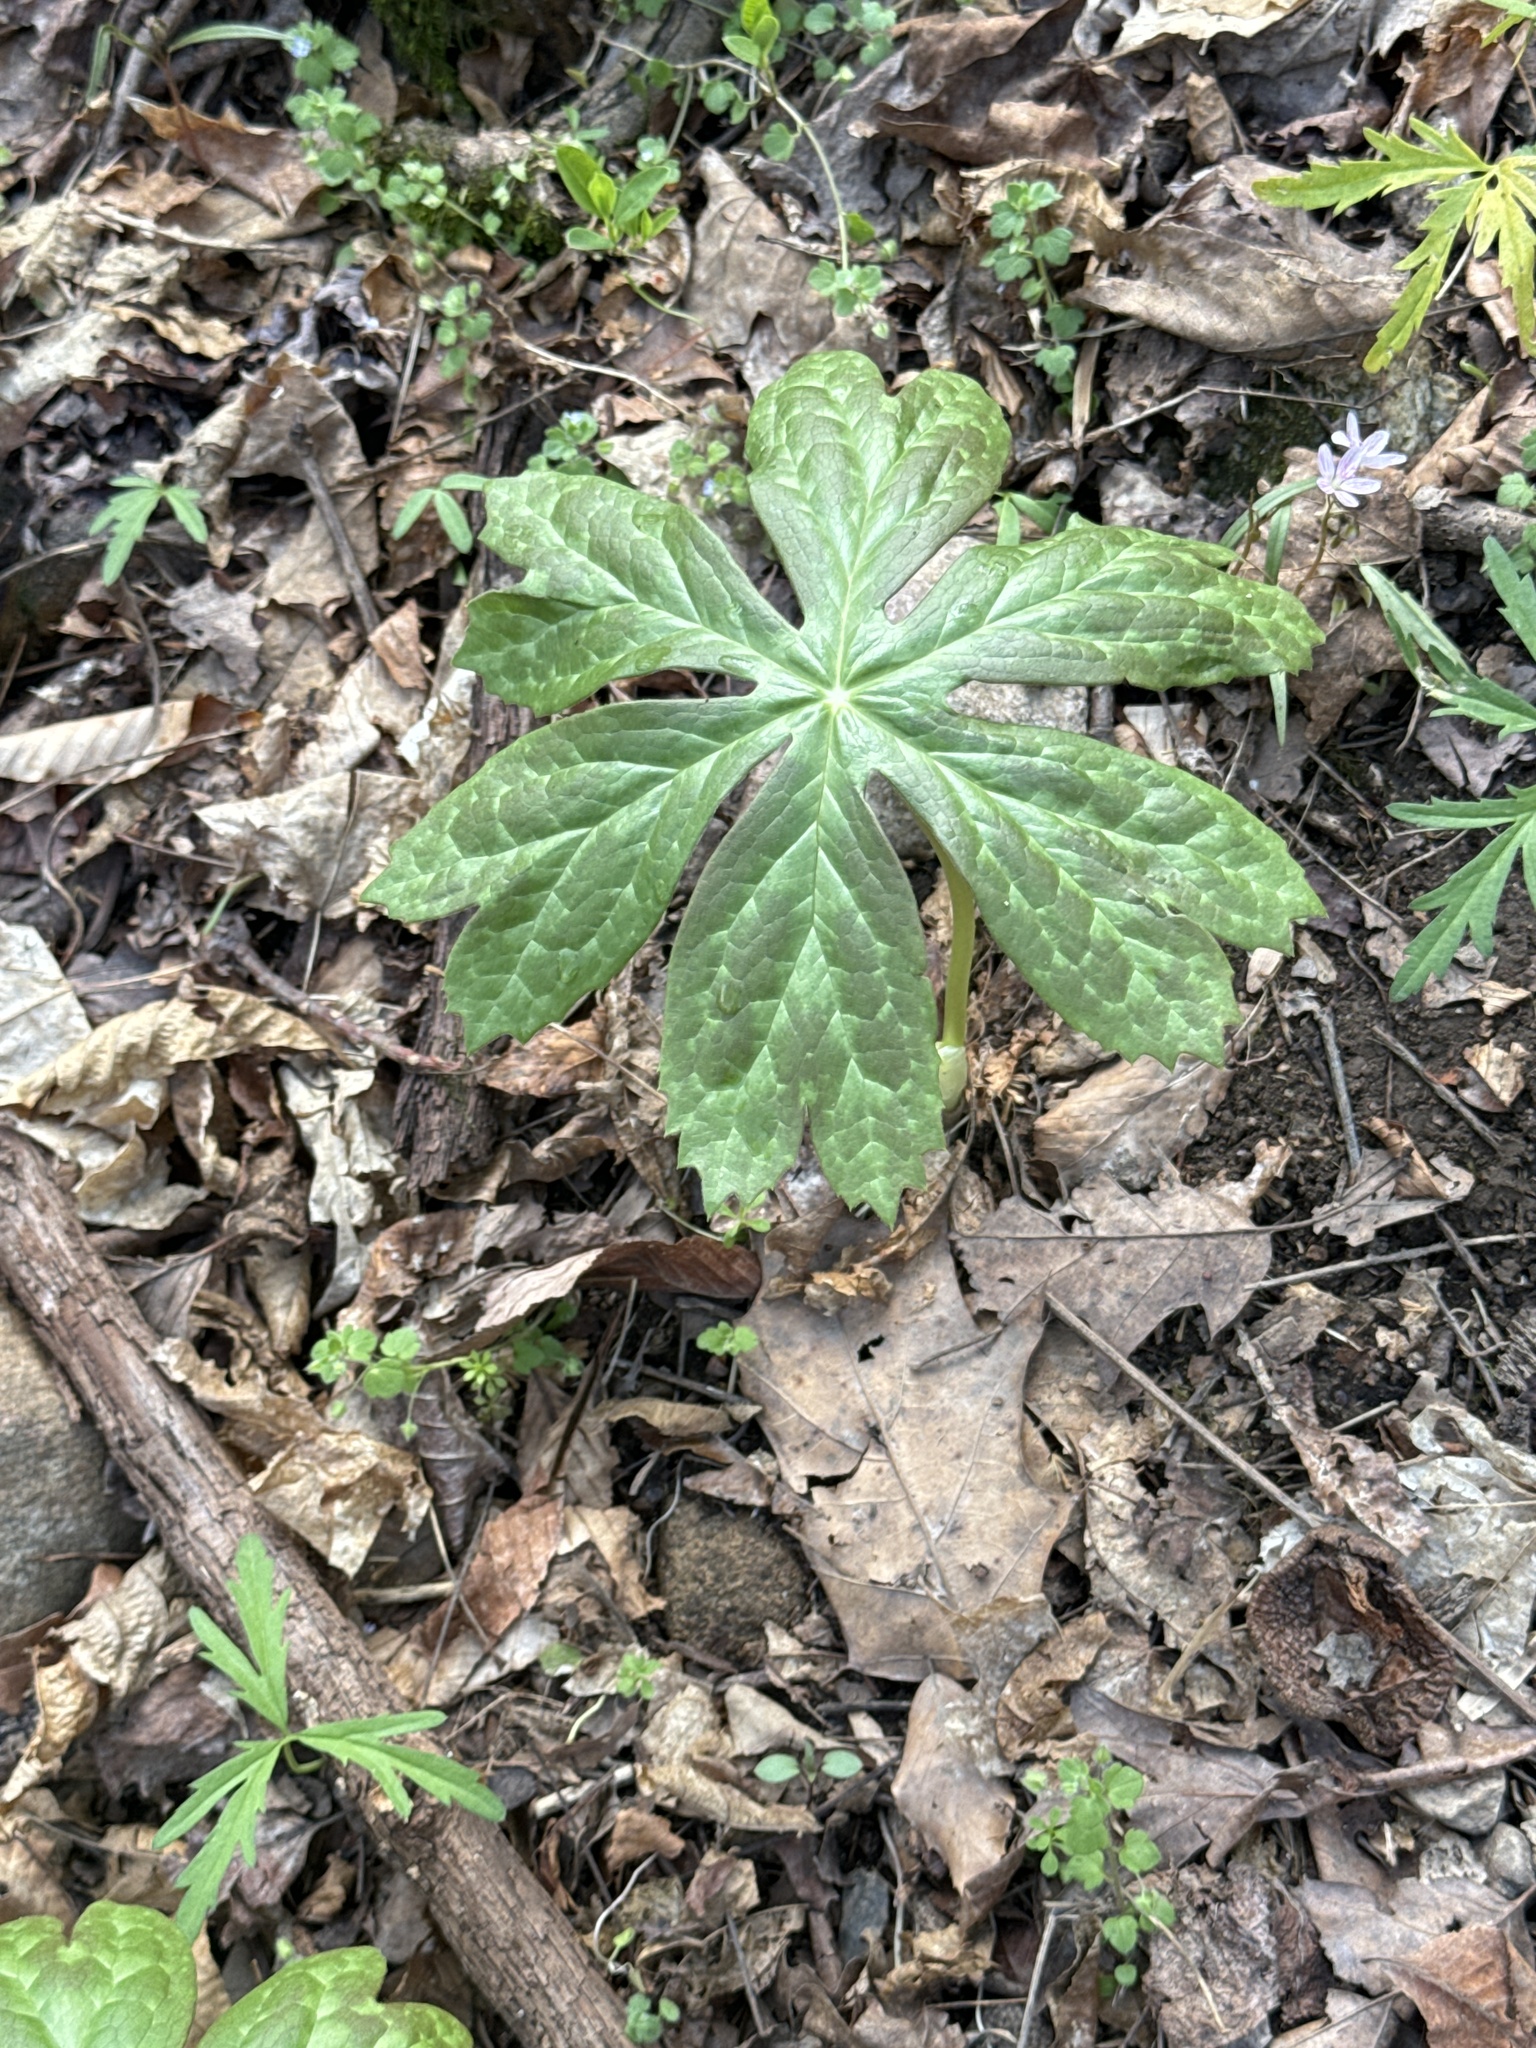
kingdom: Plantae
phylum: Tracheophyta
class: Magnoliopsida
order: Ranunculales
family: Berberidaceae
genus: Podophyllum
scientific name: Podophyllum peltatum
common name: Wild mandrake
